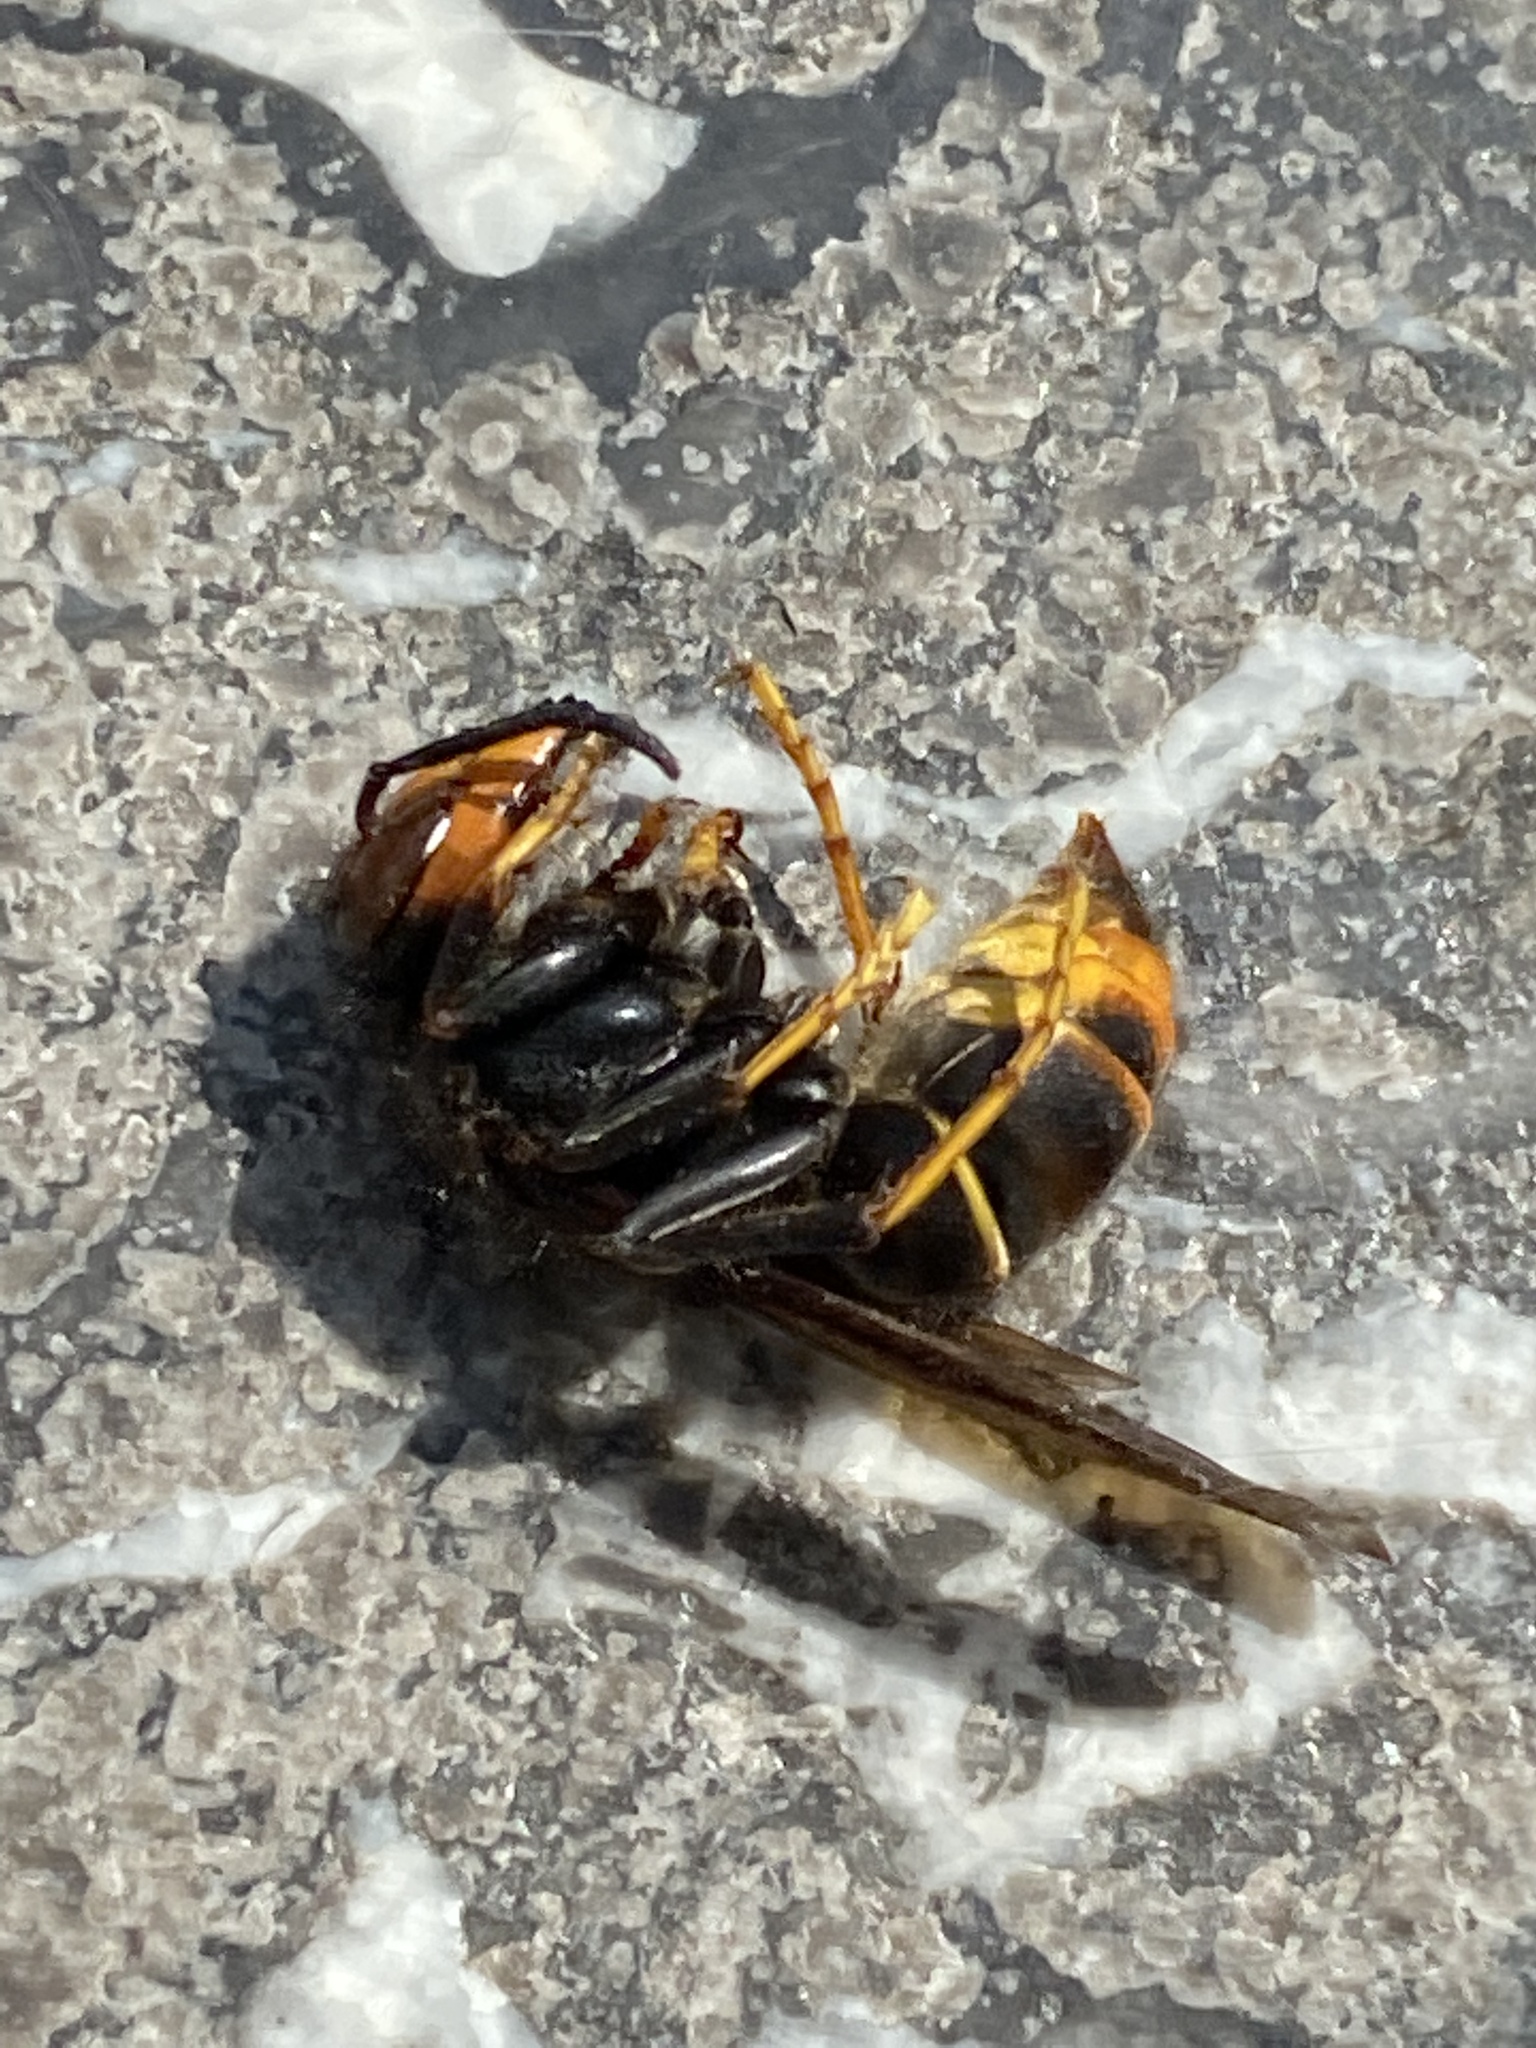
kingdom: Animalia
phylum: Arthropoda
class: Insecta
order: Hymenoptera
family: Vespidae
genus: Vespa
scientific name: Vespa velutina
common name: Asian hornet
